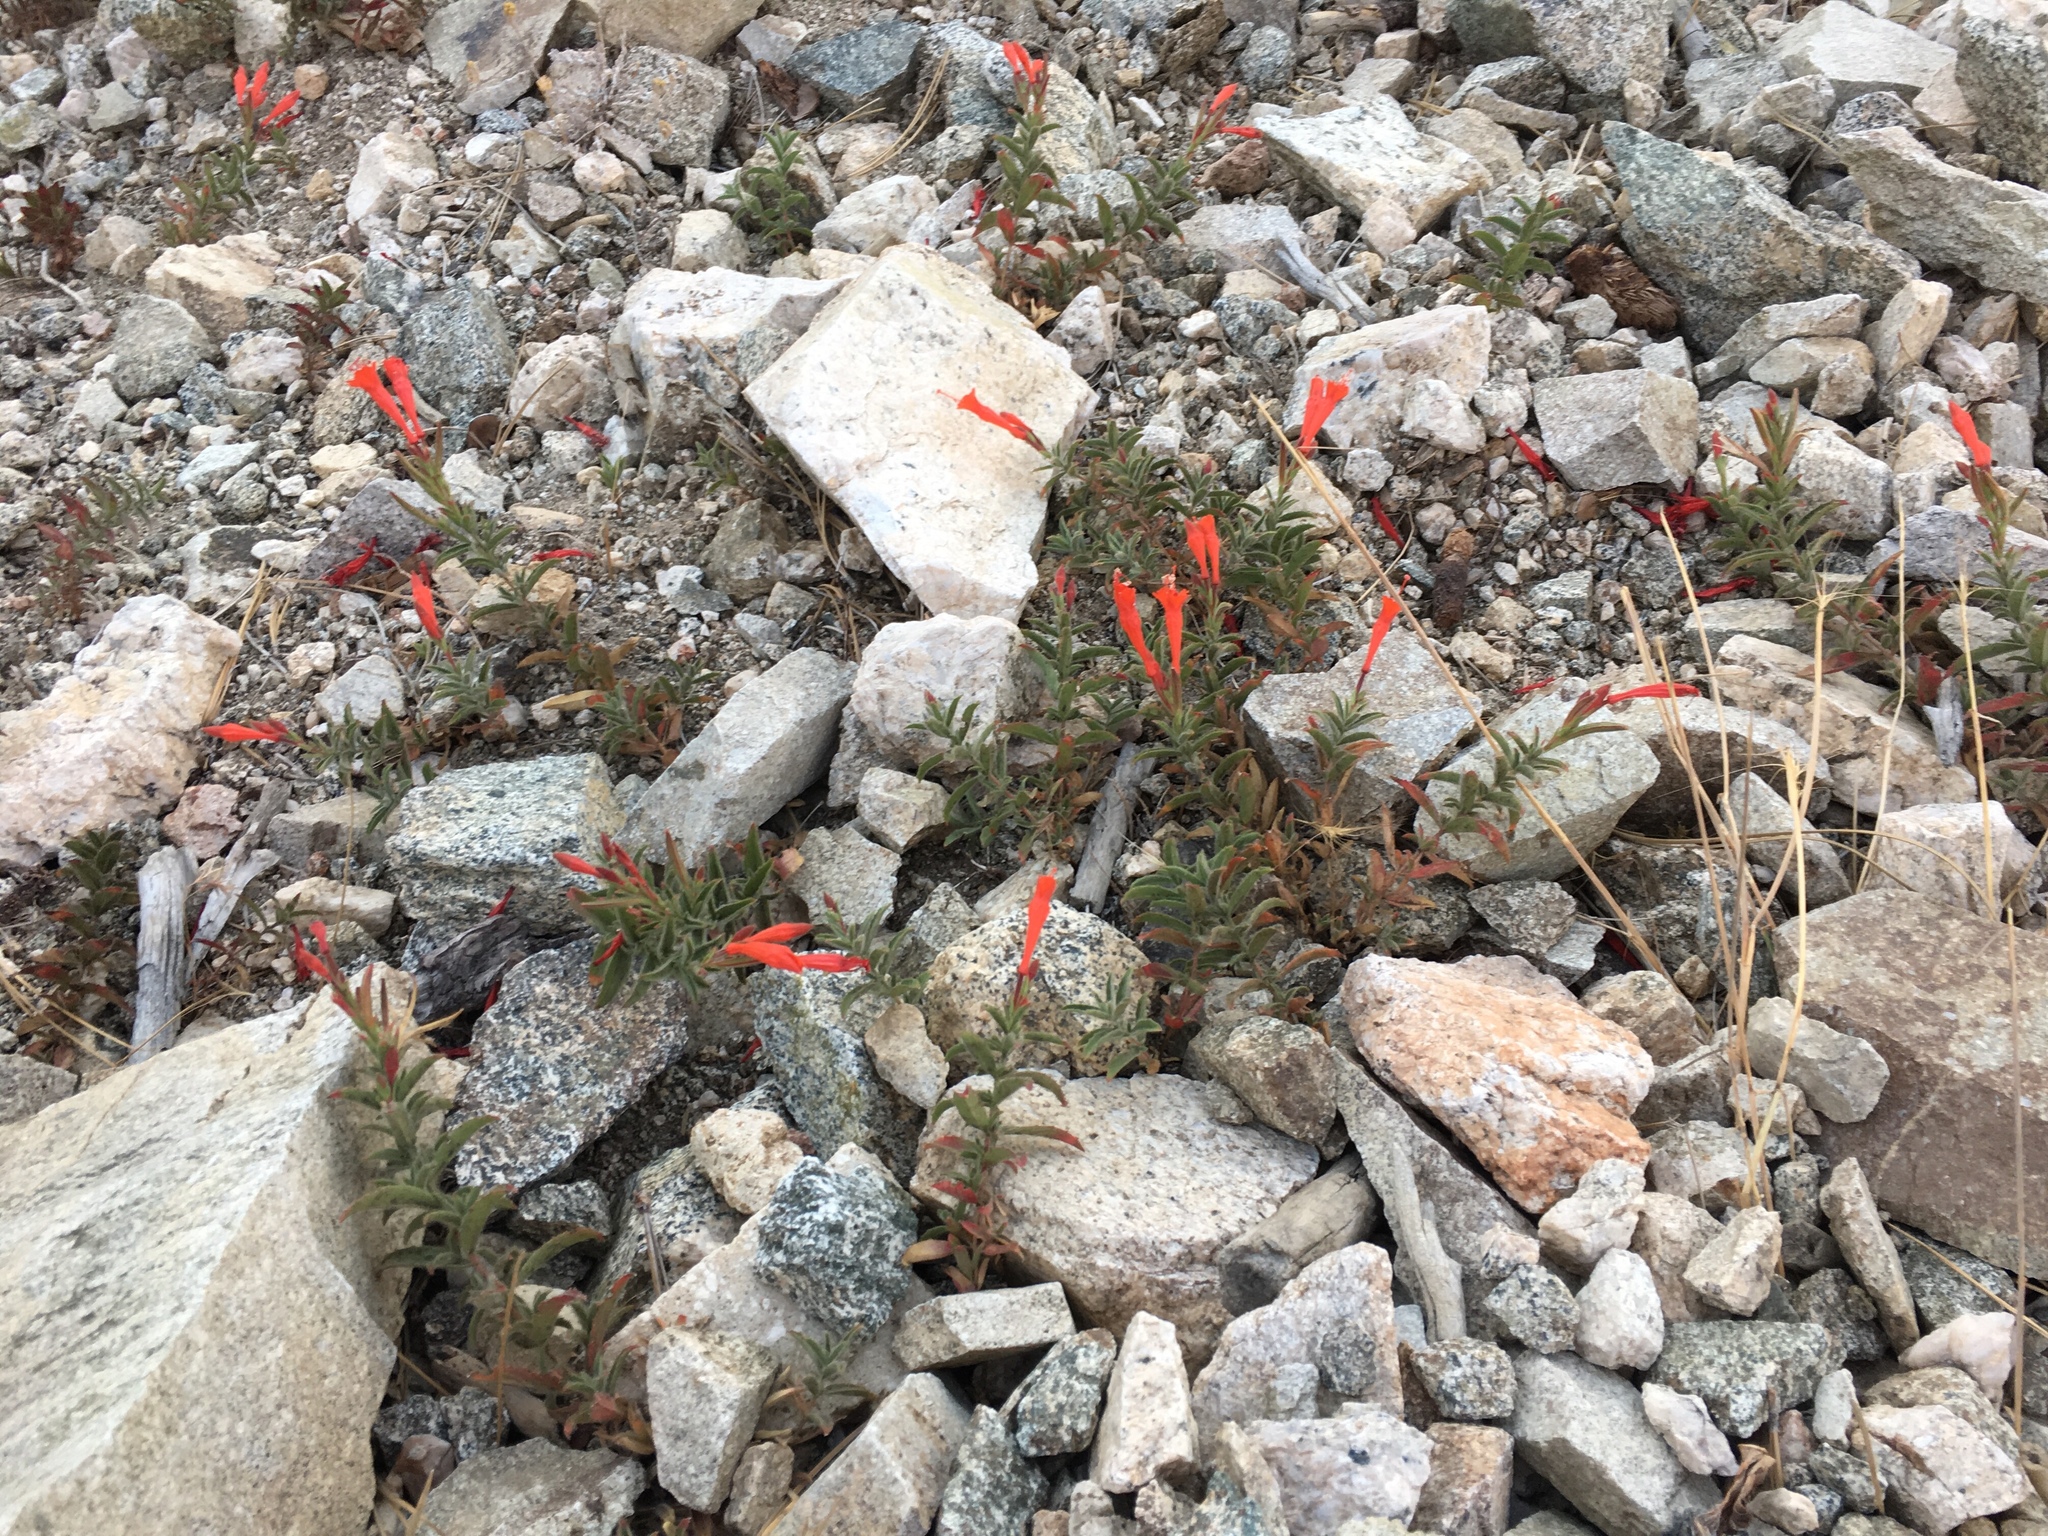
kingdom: Plantae
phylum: Tracheophyta
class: Magnoliopsida
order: Myrtales
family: Onagraceae
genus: Epilobium
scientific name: Epilobium canum
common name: California-fuchsia
